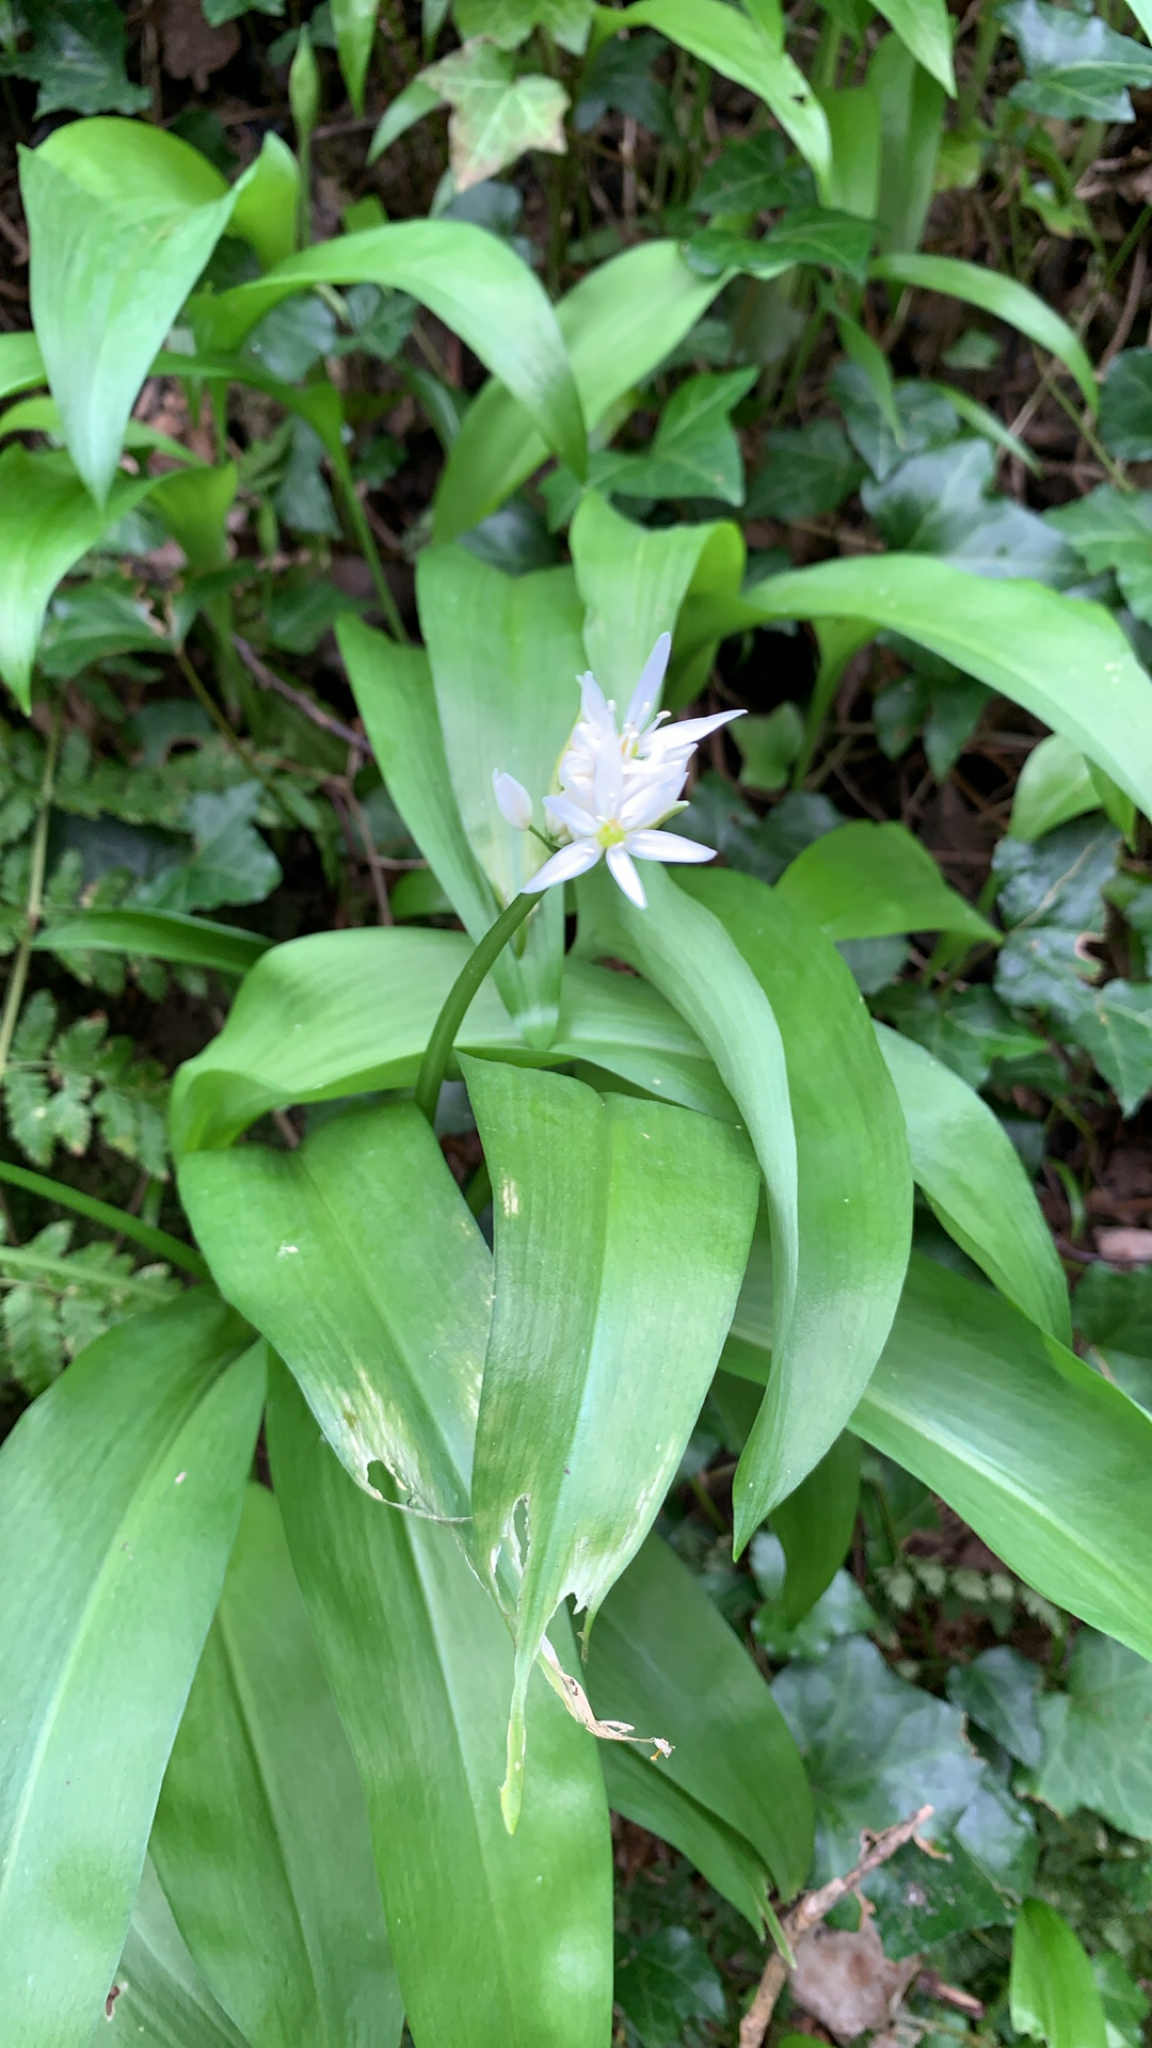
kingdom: Plantae
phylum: Tracheophyta
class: Liliopsida
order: Asparagales
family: Amaryllidaceae
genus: Allium
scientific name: Allium ursinum
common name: Ramsons
